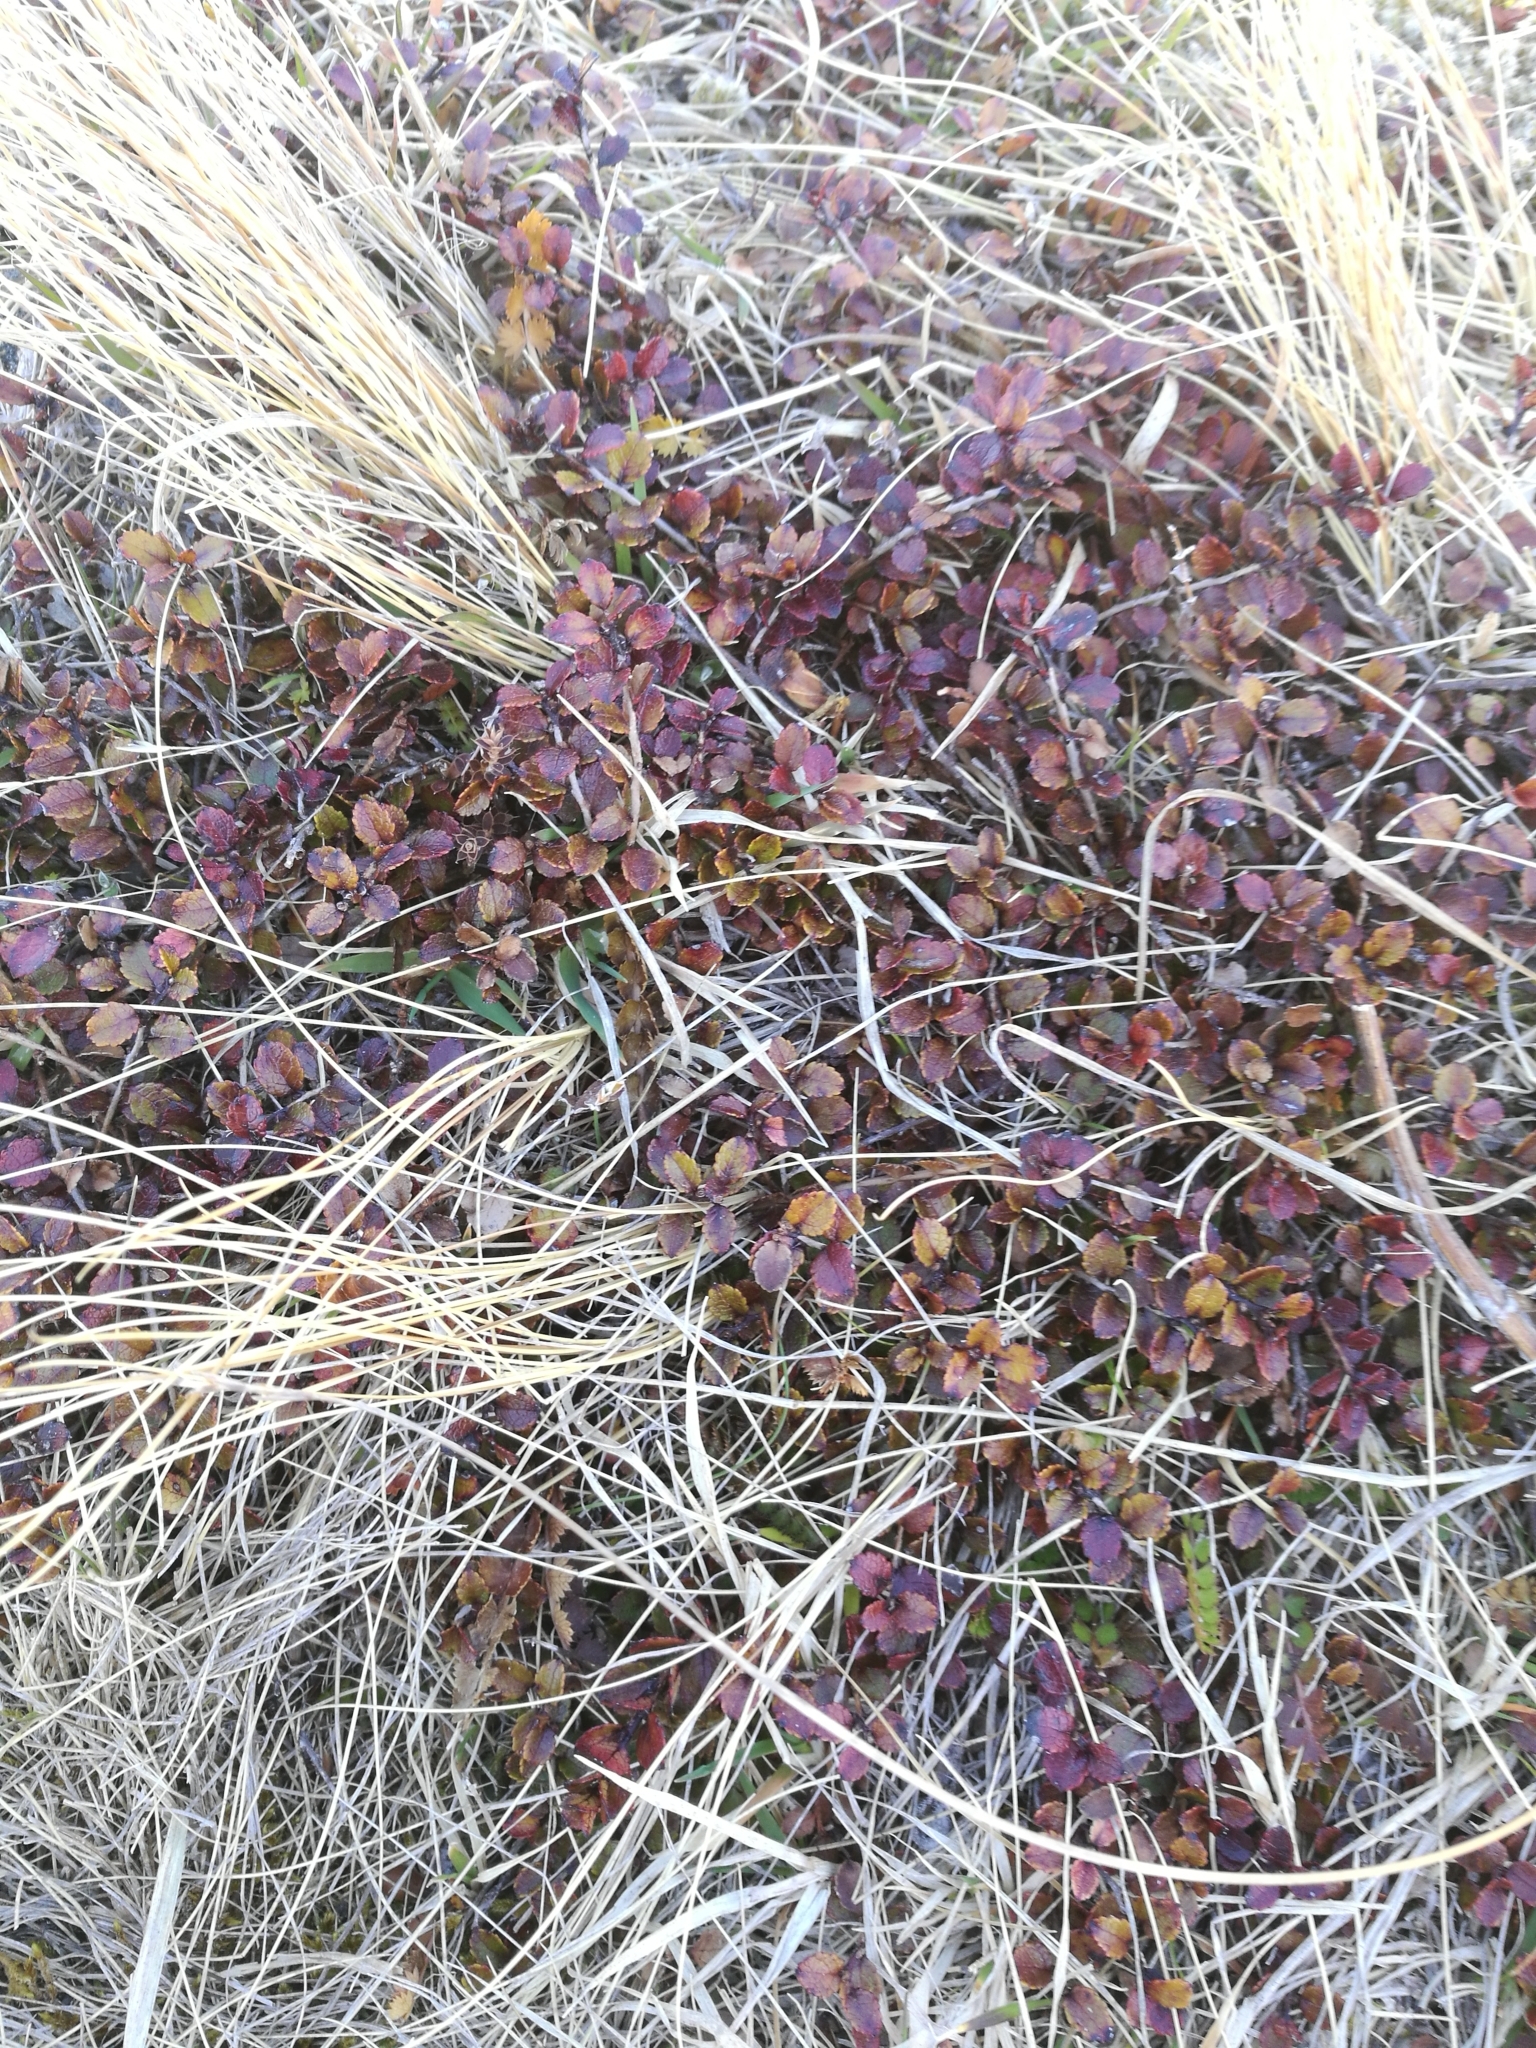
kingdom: Plantae
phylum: Tracheophyta
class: Magnoliopsida
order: Ericales
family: Ericaceae
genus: Gaultheria
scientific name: Gaultheria depressa
